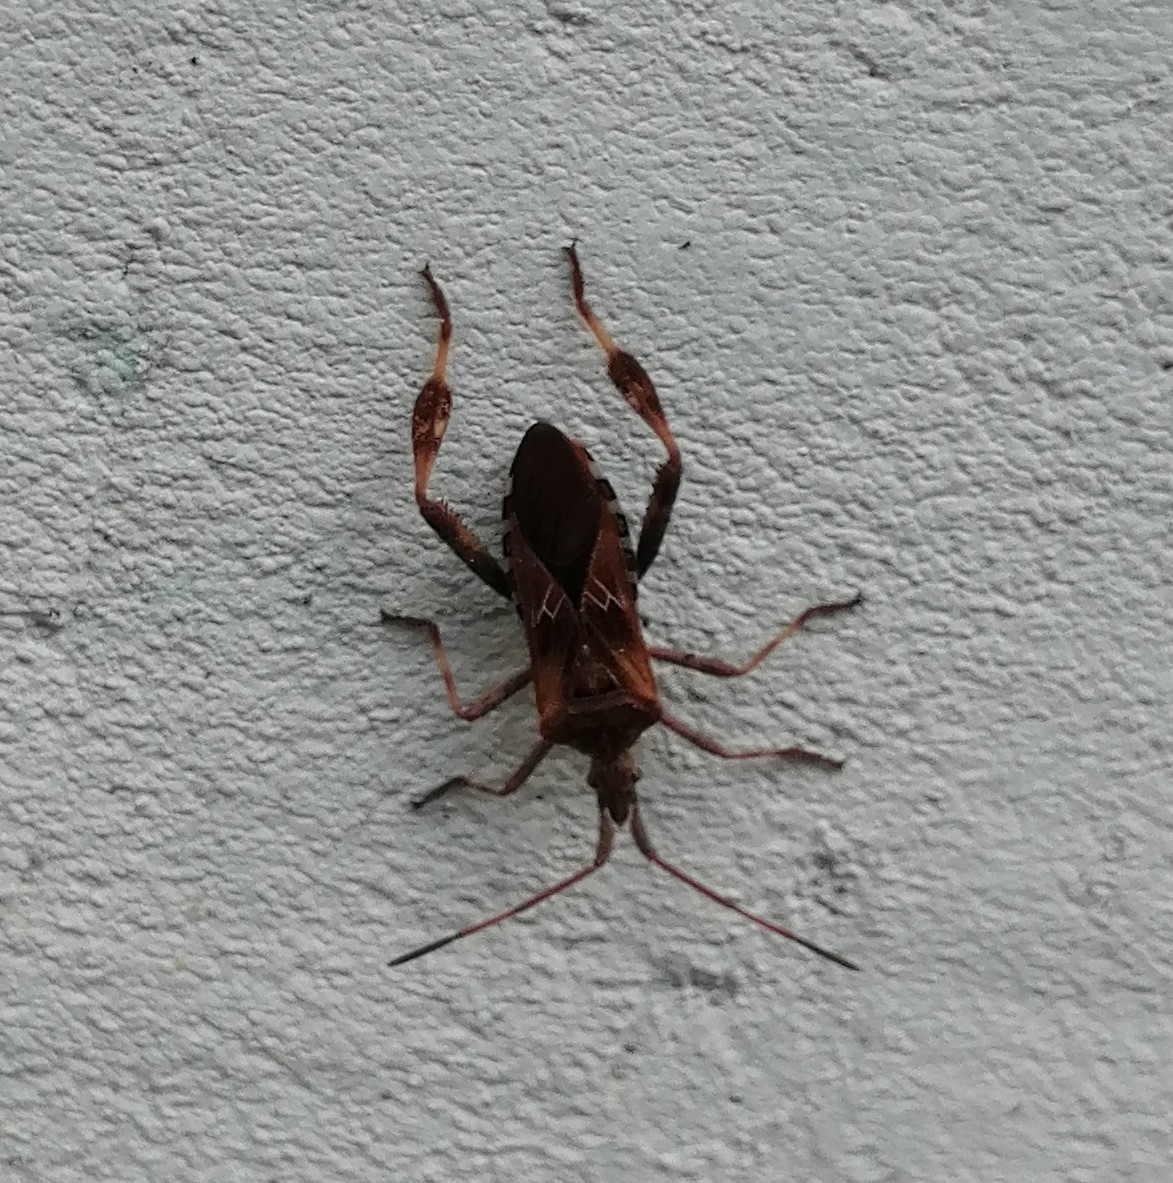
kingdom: Animalia
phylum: Arthropoda
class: Insecta
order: Hemiptera
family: Coreidae
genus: Leptoglossus
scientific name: Leptoglossus occidentalis
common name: Western conifer-seed bug
